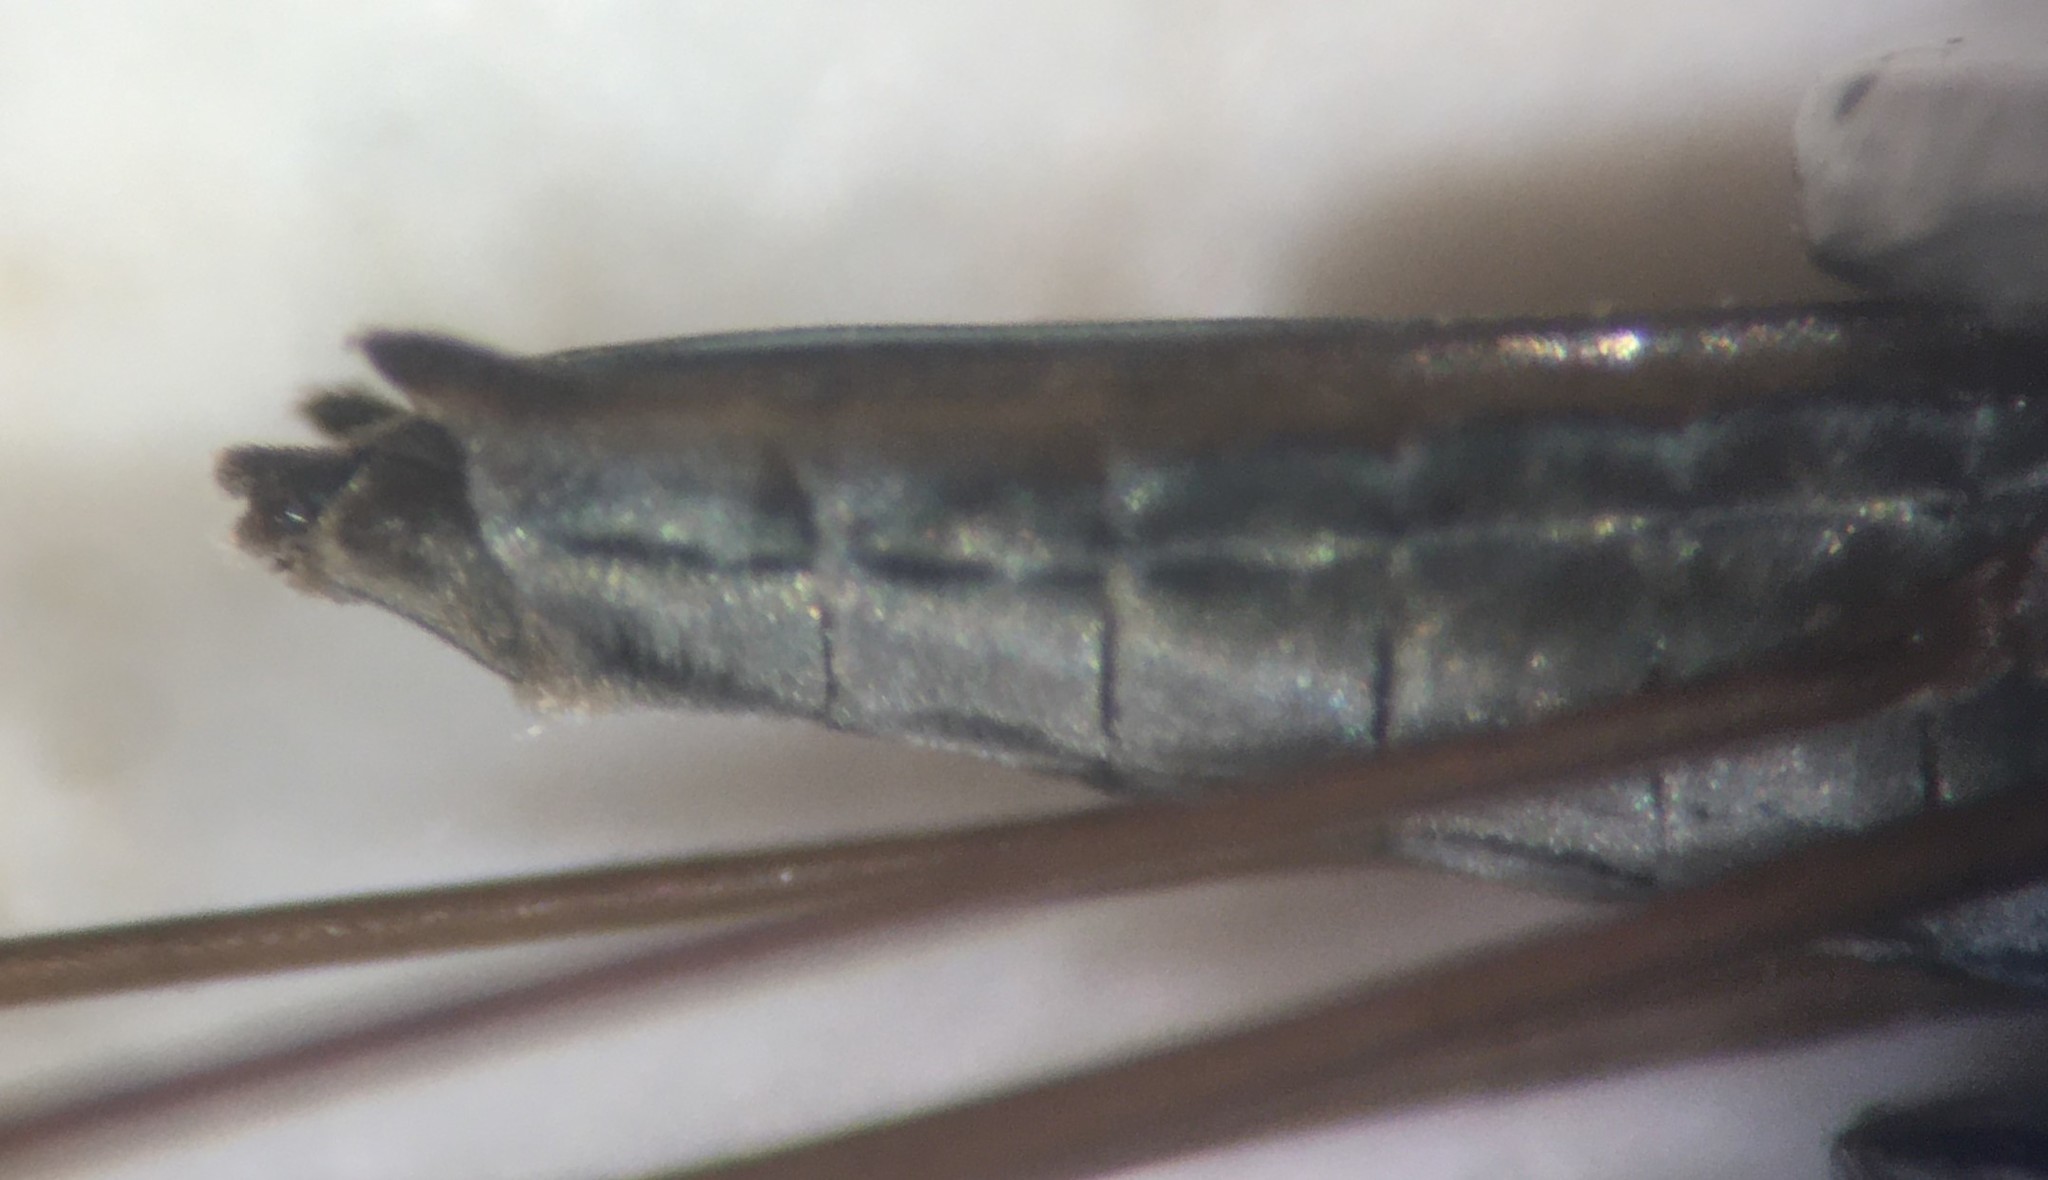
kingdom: Animalia
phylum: Arthropoda
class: Insecta
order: Hemiptera
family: Gerridae
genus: Gerris
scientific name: Gerris argenticollis
